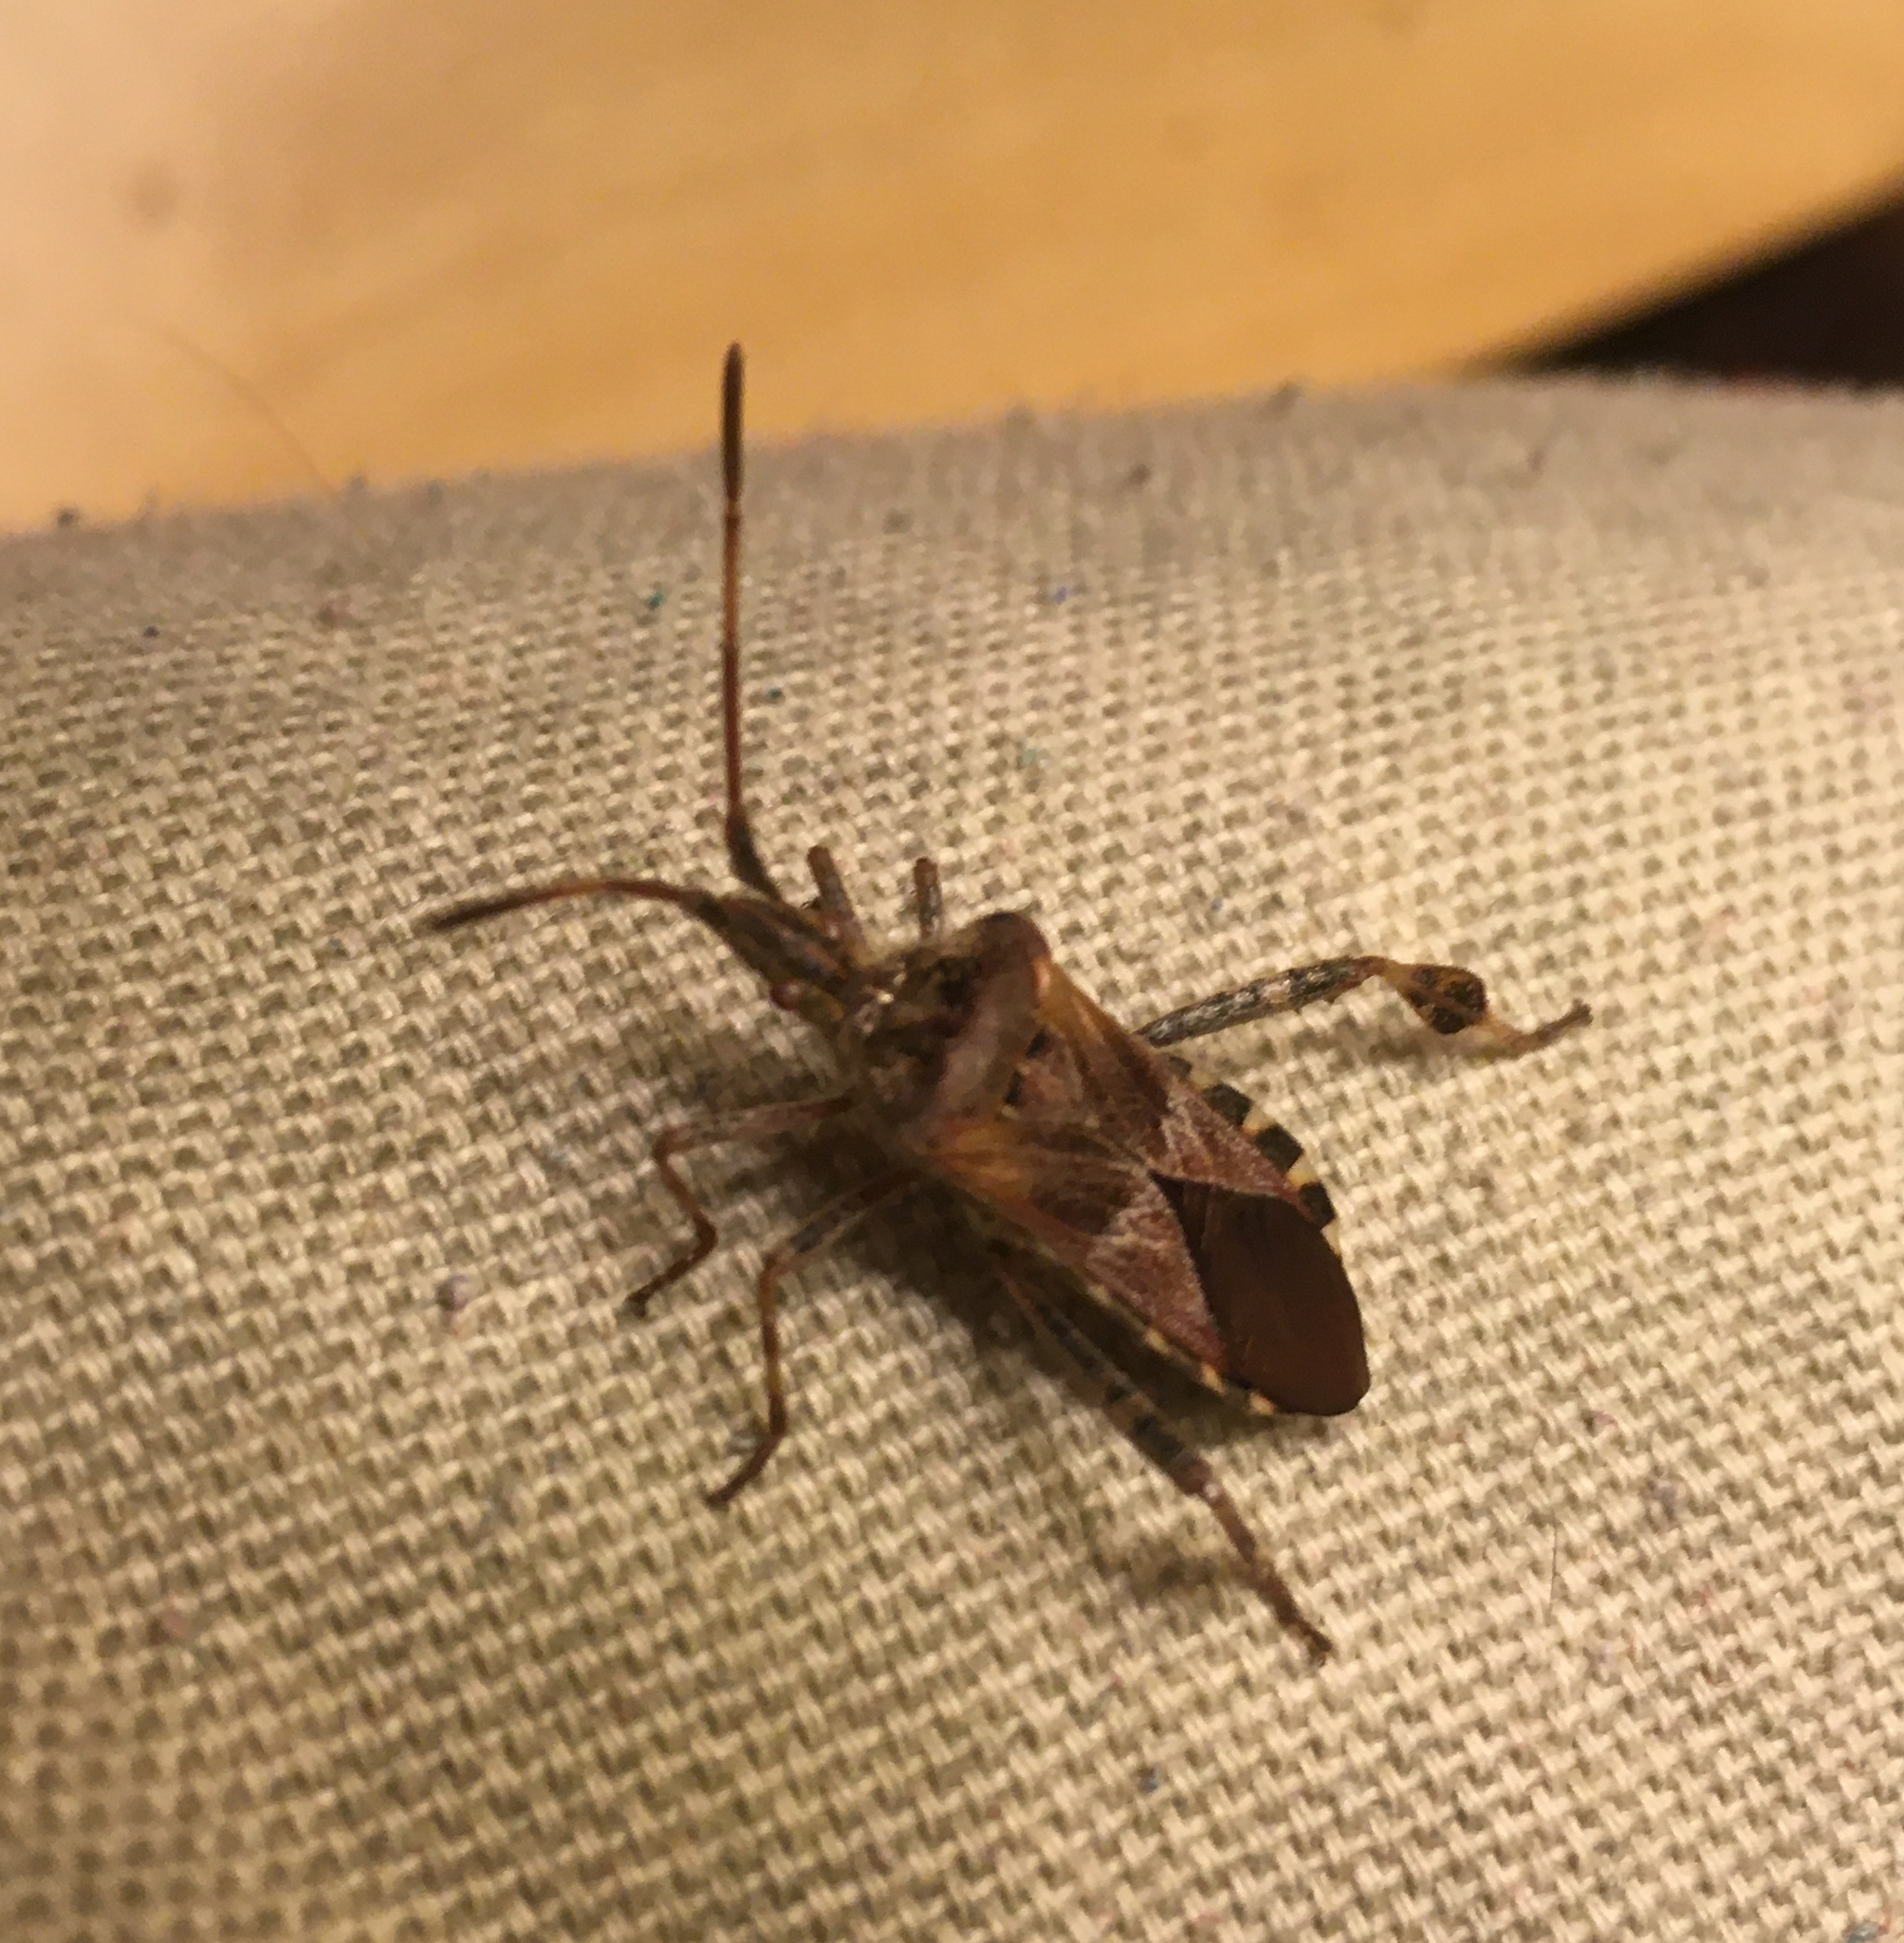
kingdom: Animalia
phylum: Arthropoda
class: Insecta
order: Hemiptera
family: Coreidae
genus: Leptoglossus
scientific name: Leptoglossus occidentalis
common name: Western conifer-seed bug
